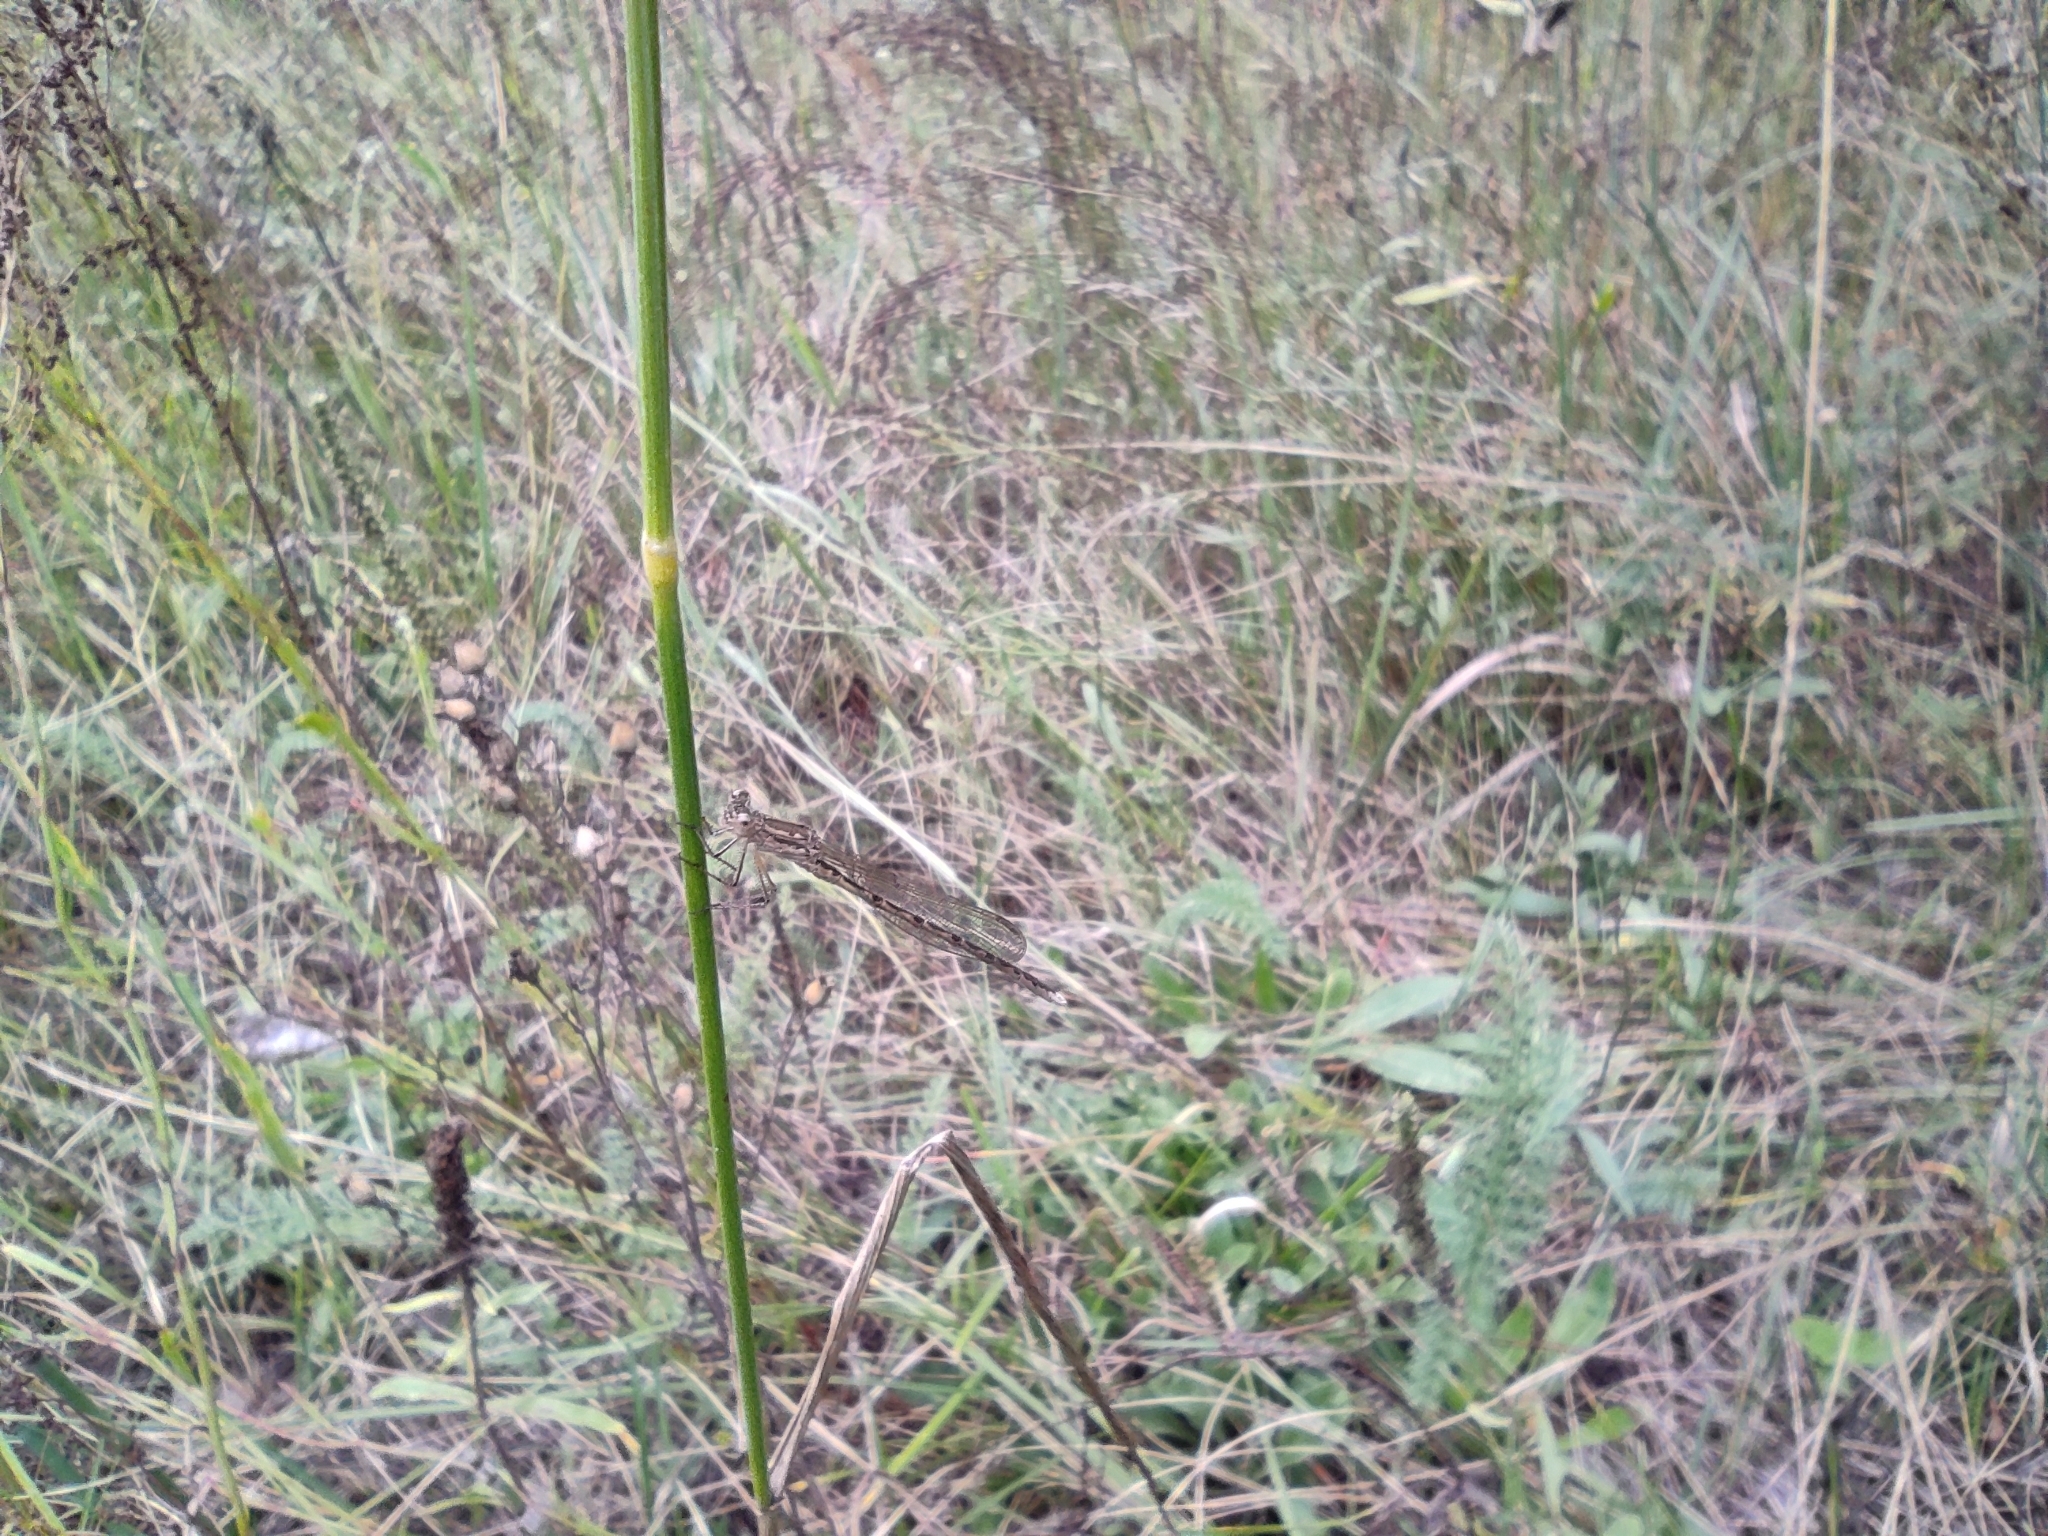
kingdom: Animalia
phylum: Arthropoda
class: Insecta
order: Odonata
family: Lestidae
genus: Sympecma
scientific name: Sympecma paedisca
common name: Siberian winter damsel
